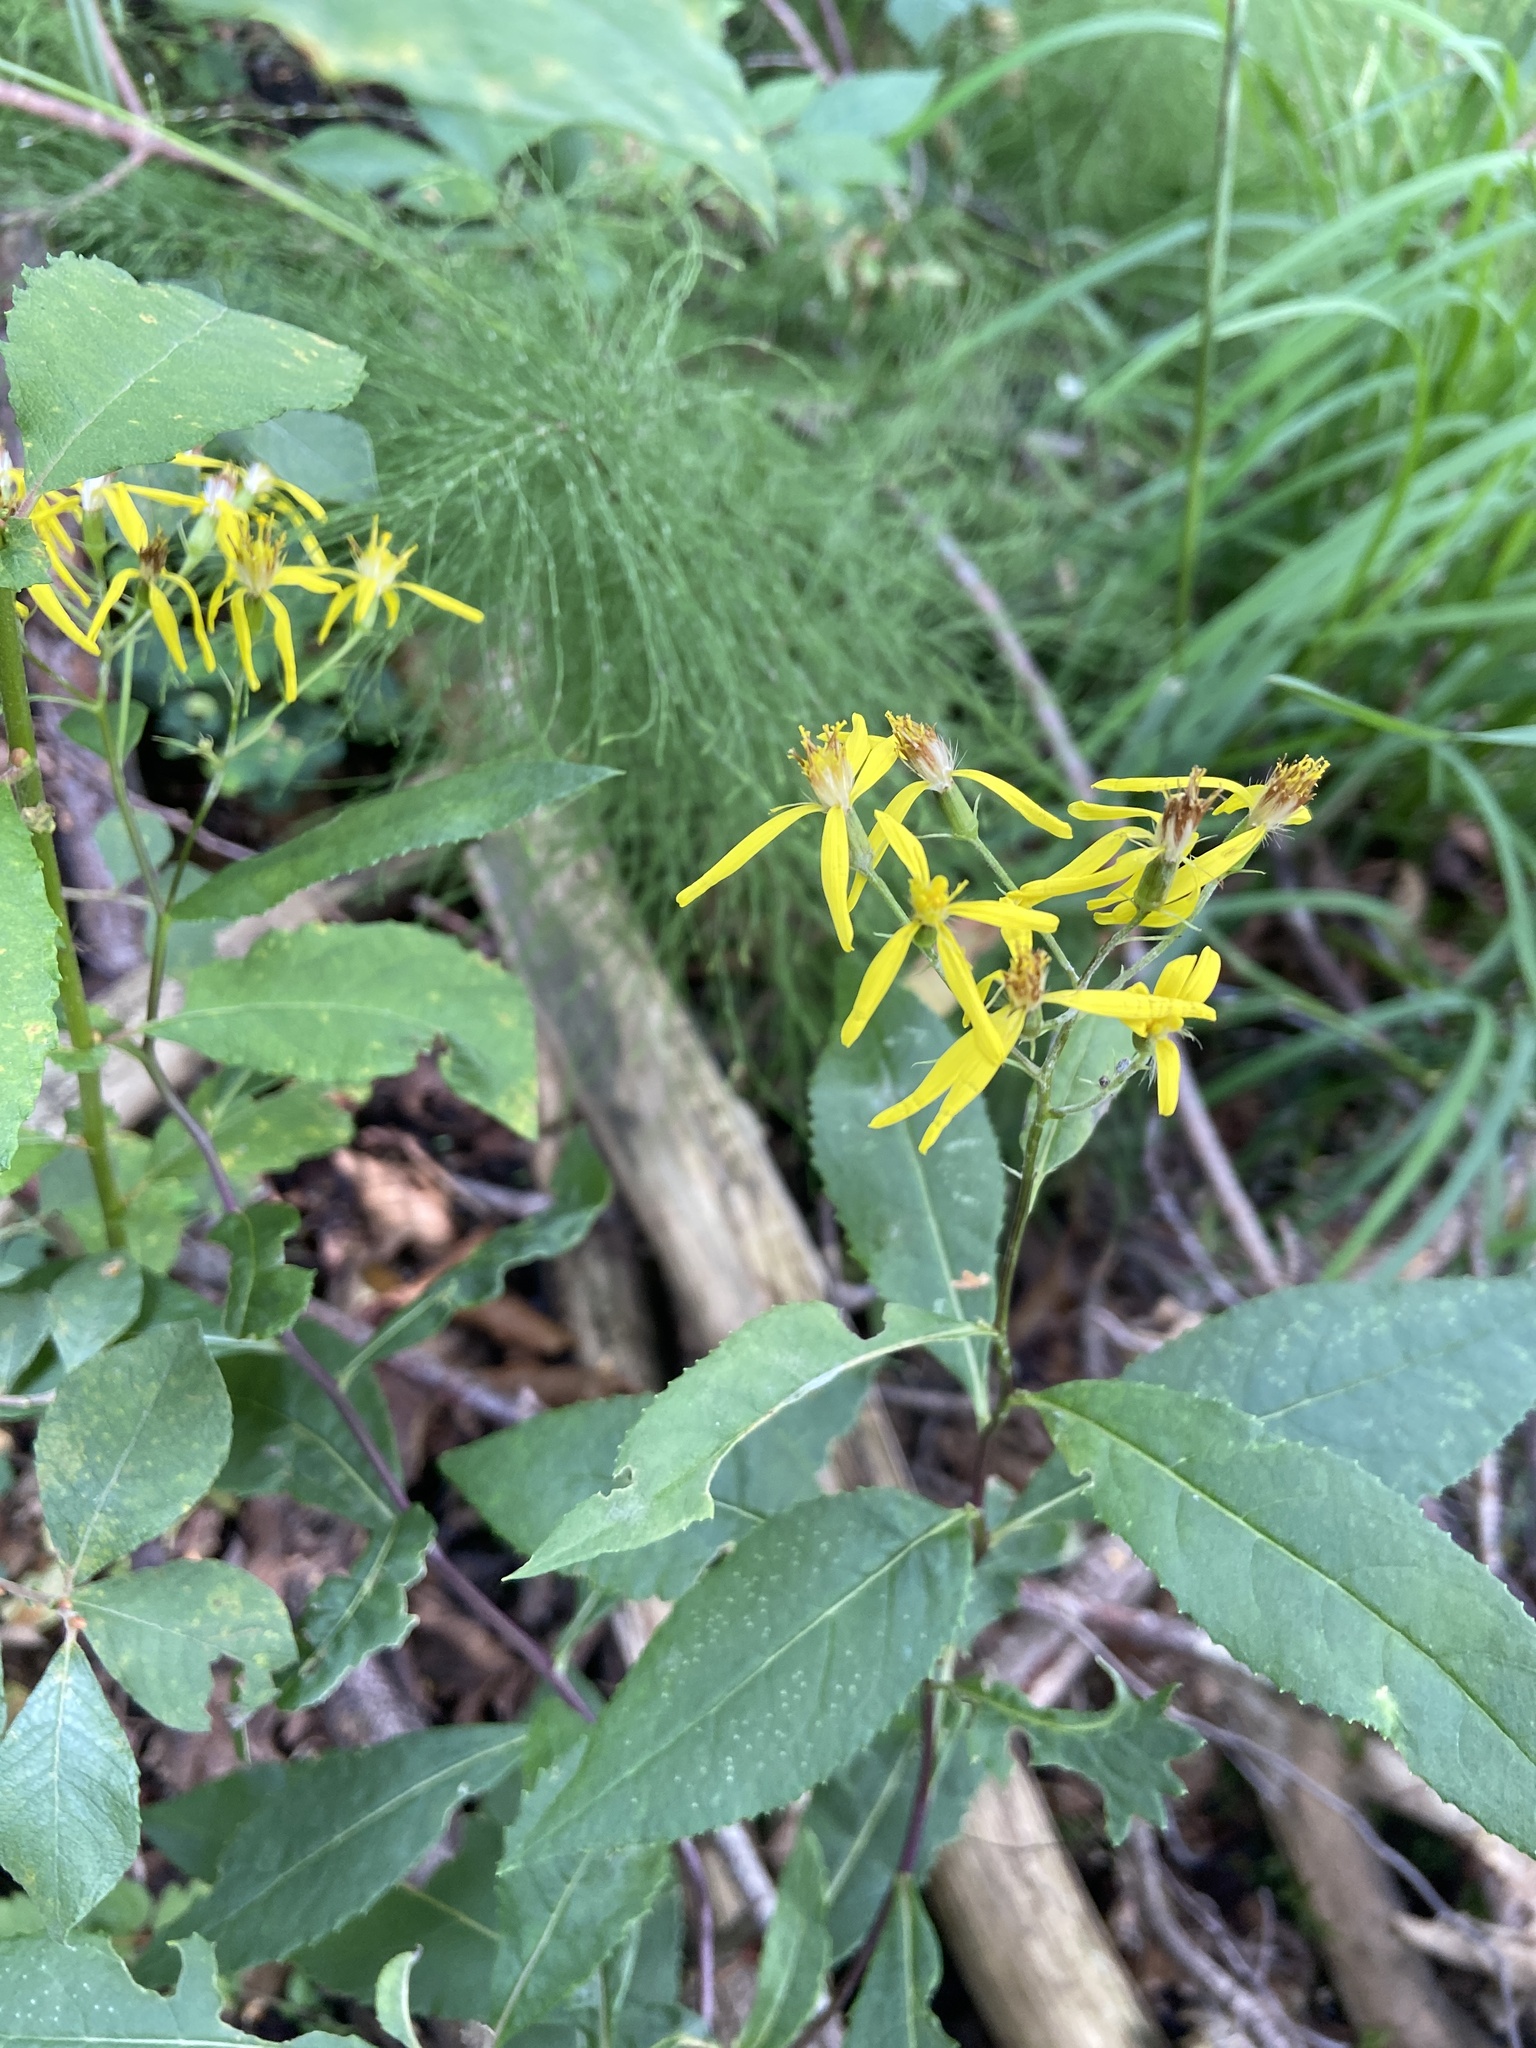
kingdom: Plantae
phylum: Tracheophyta
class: Magnoliopsida
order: Asterales
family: Asteraceae
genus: Senecio
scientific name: Senecio ovatus
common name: Wood ragwort
